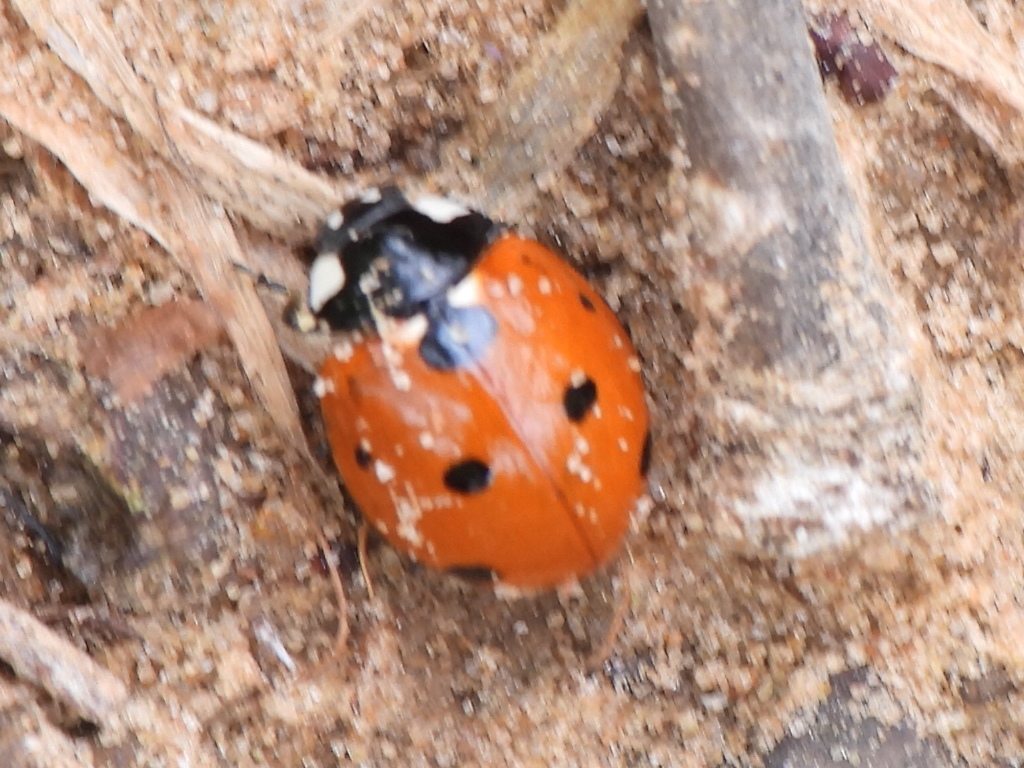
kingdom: Animalia
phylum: Arthropoda
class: Insecta
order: Coleoptera
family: Coccinellidae
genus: Coccinella
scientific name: Coccinella septempunctata
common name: Sevenspotted lady beetle
